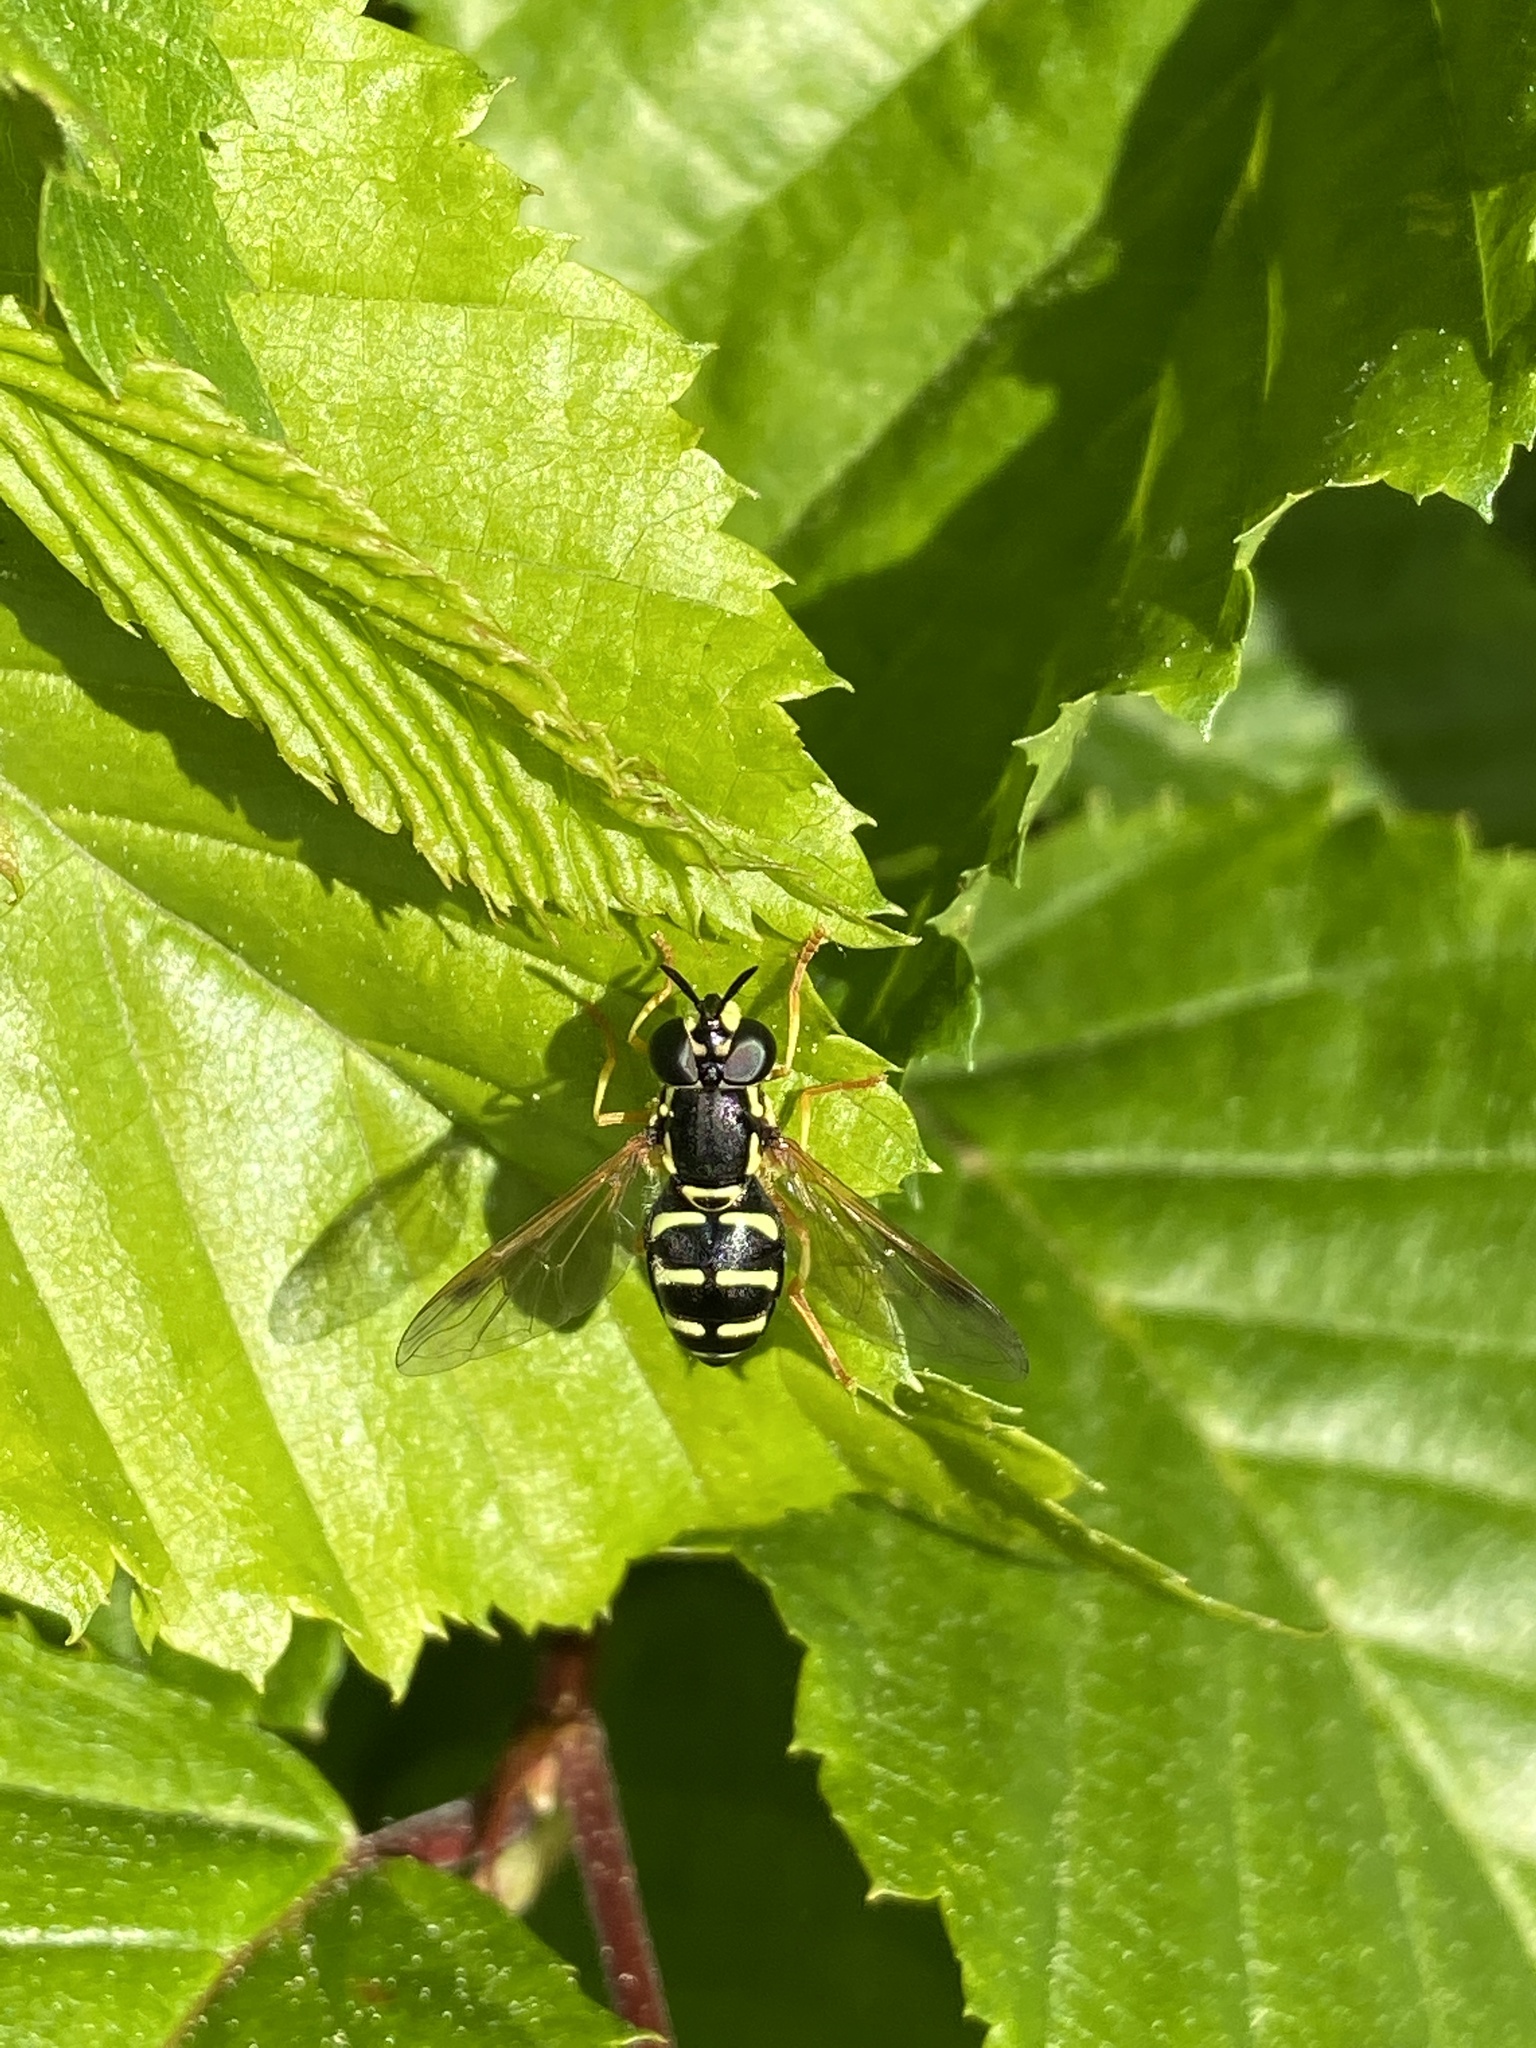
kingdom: Animalia
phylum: Arthropoda
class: Insecta
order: Diptera
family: Syrphidae
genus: Chrysotoxum
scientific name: Chrysotoxum
